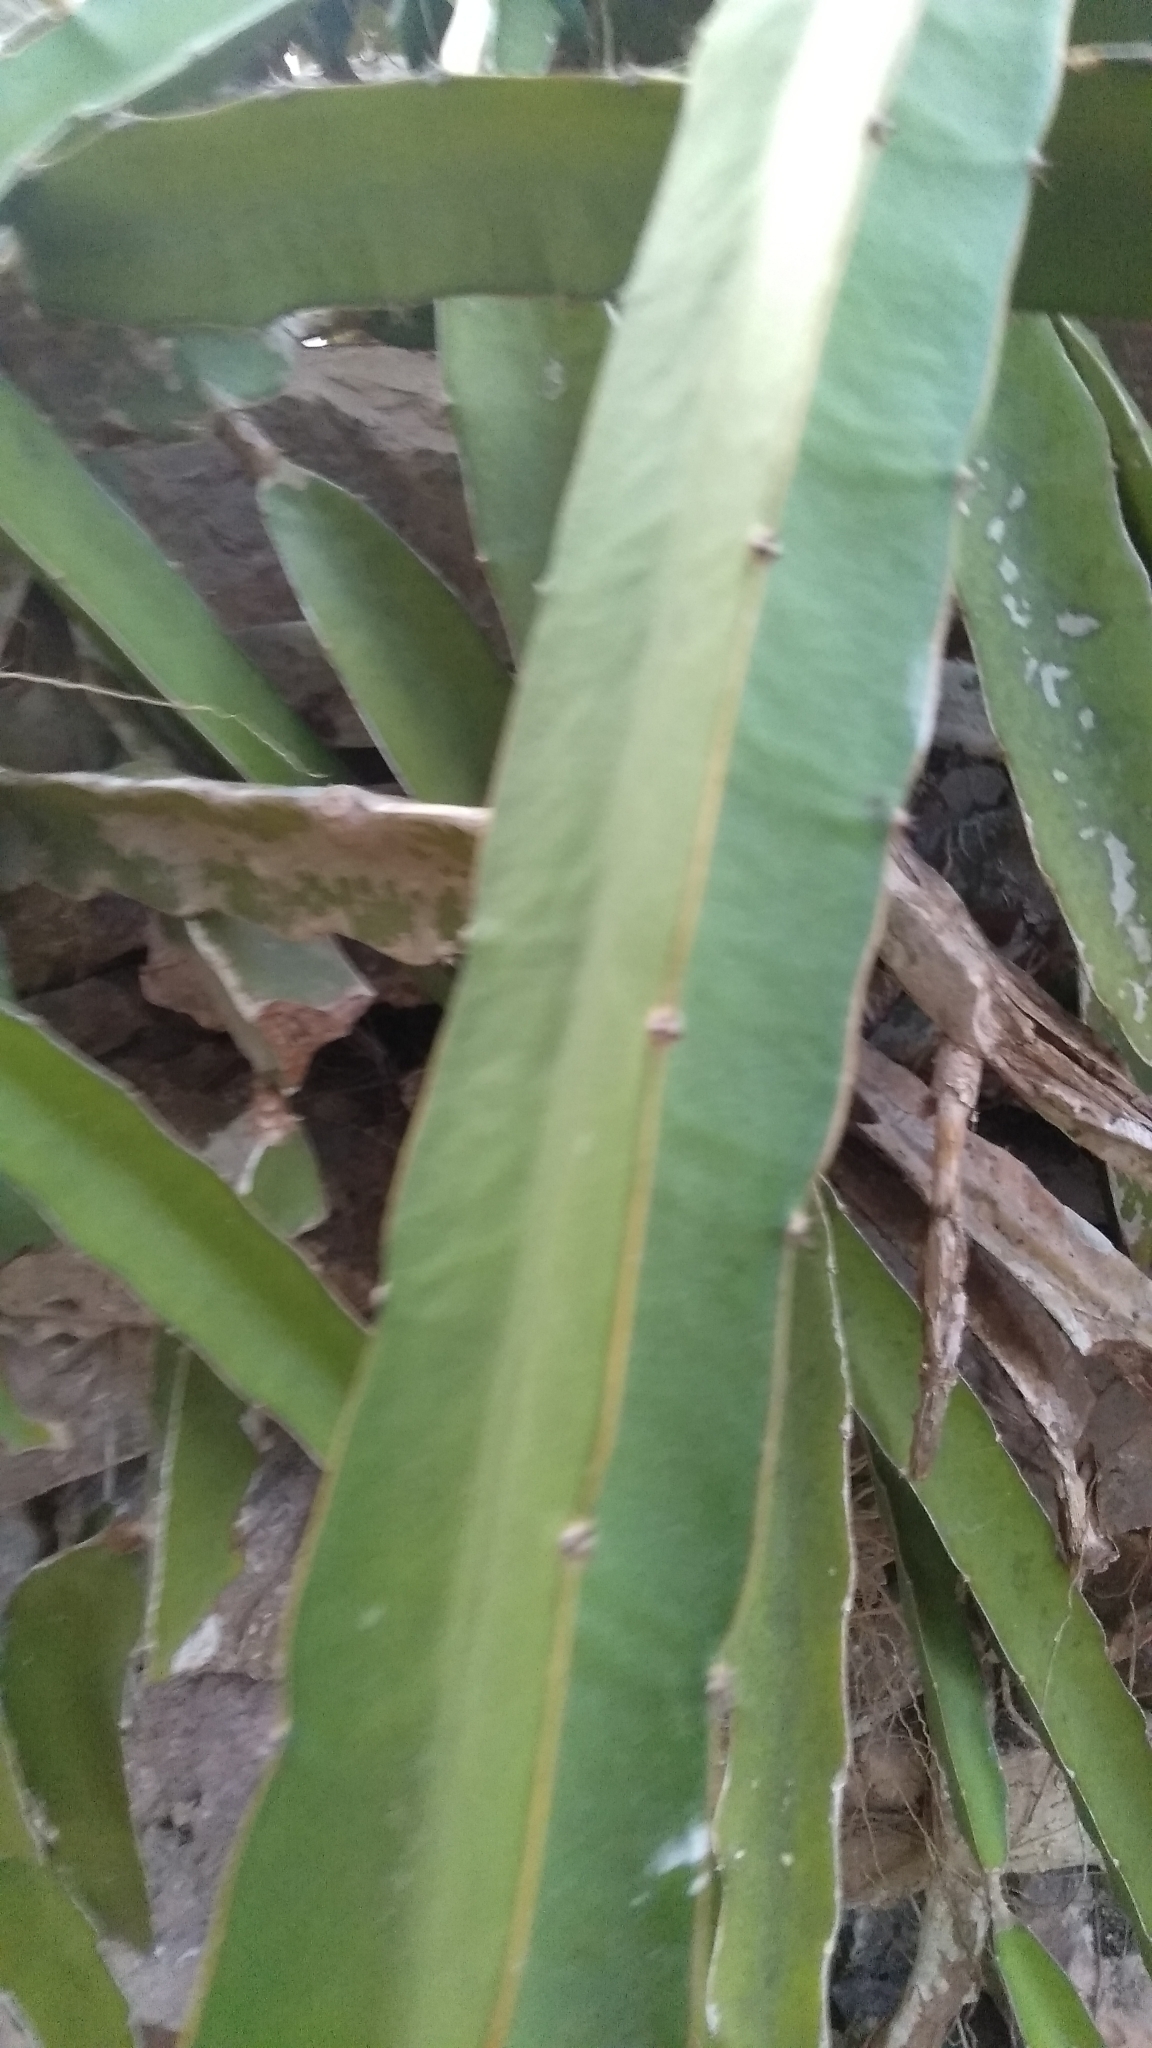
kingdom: Plantae
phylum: Tracheophyta
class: Magnoliopsida
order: Caryophyllales
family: Cactaceae
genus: Selenicereus
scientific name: Selenicereus undatus
